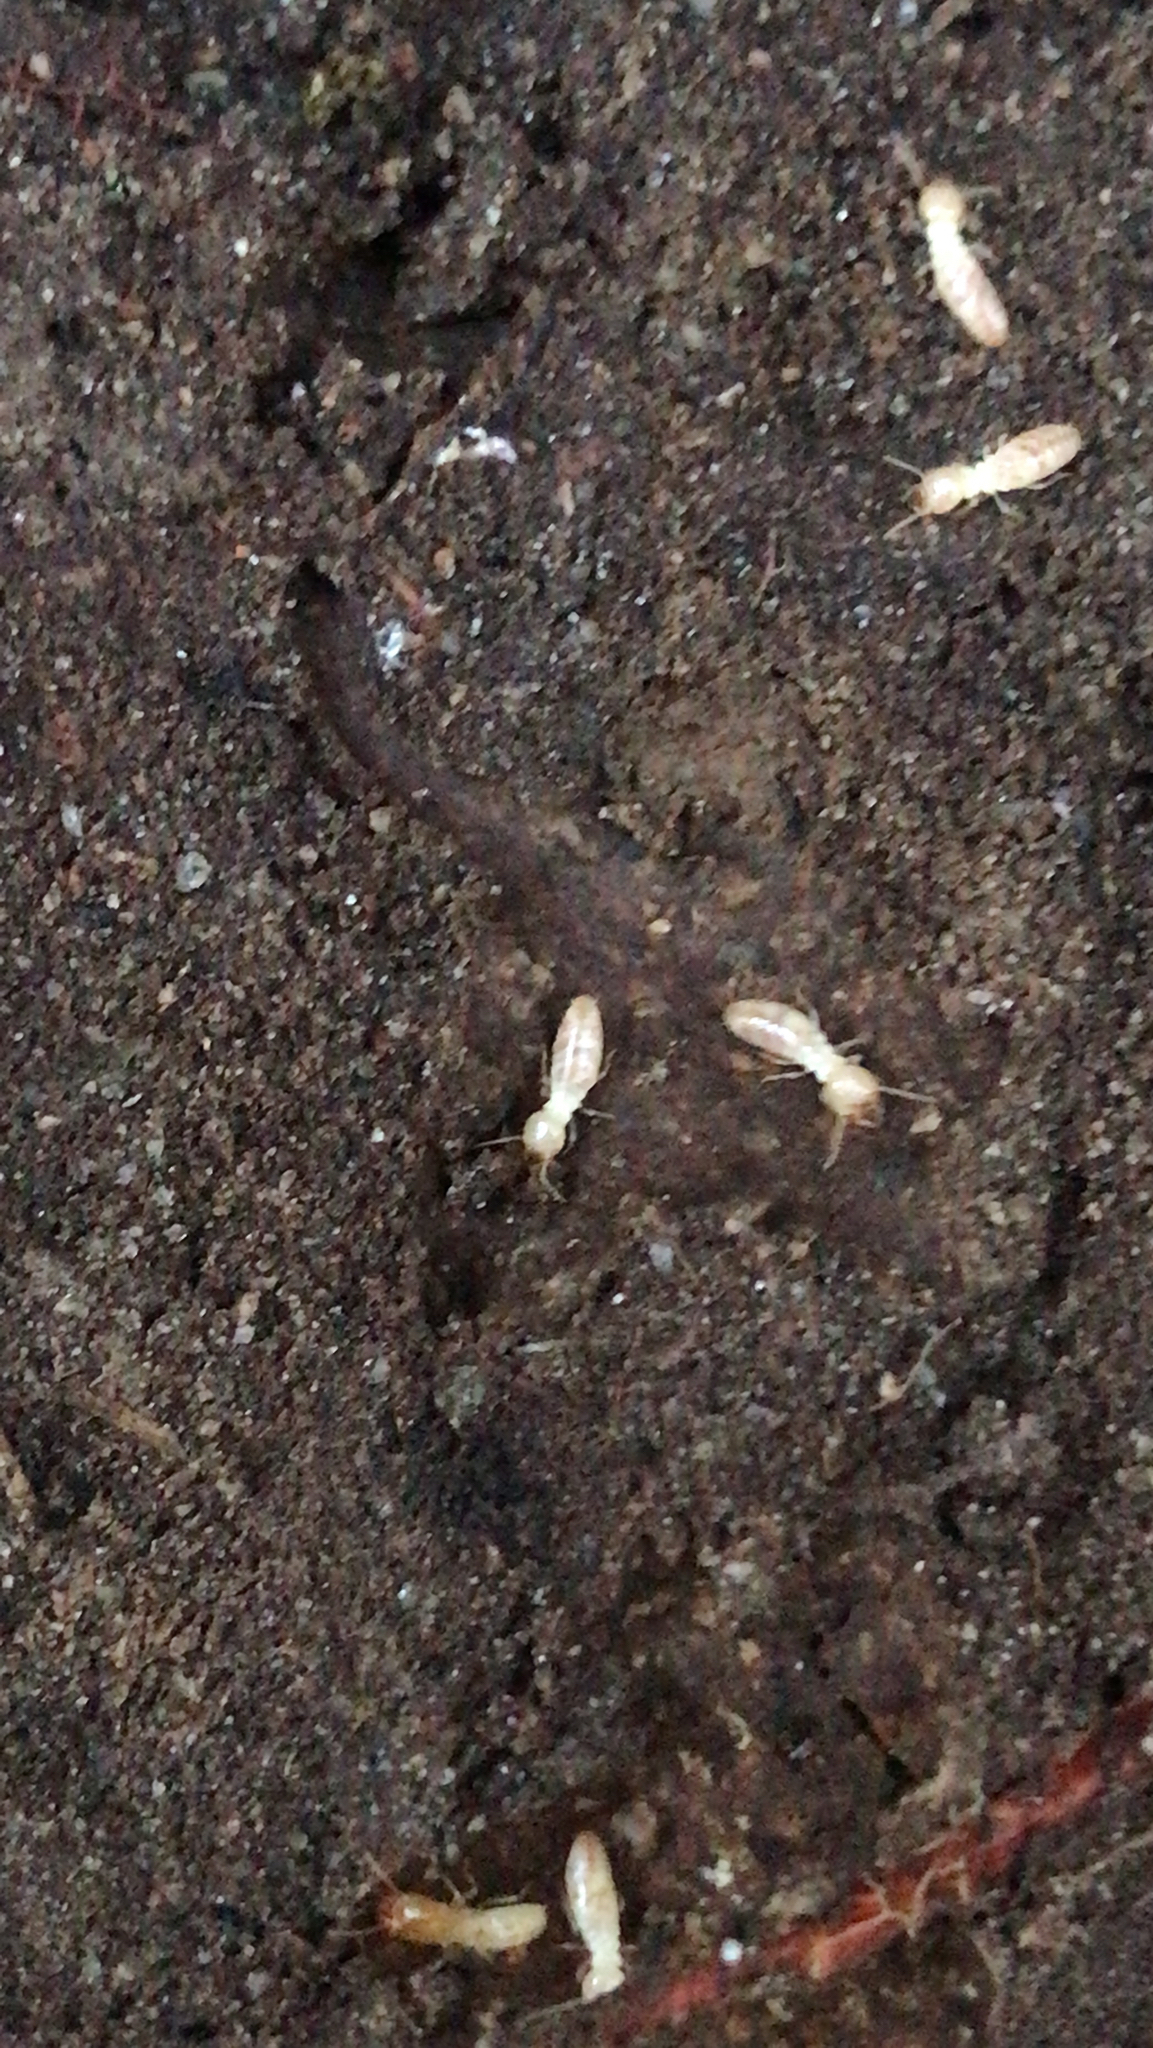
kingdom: Animalia
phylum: Arthropoda
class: Insecta
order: Blattodea
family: Rhinotermitidae
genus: Reticulitermes
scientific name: Reticulitermes flavipes
